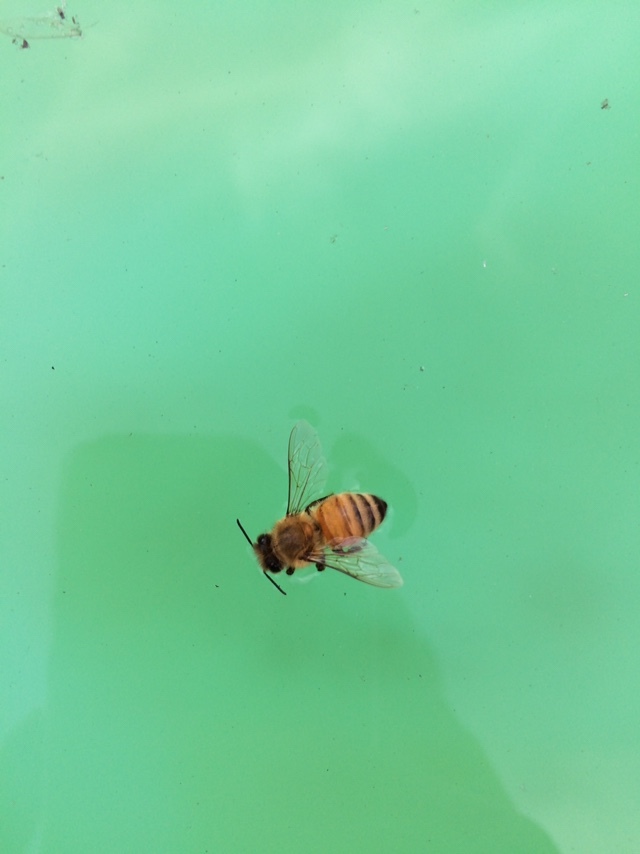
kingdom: Animalia
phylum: Arthropoda
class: Insecta
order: Hymenoptera
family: Apidae
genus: Apis
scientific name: Apis mellifera
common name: Honey bee
